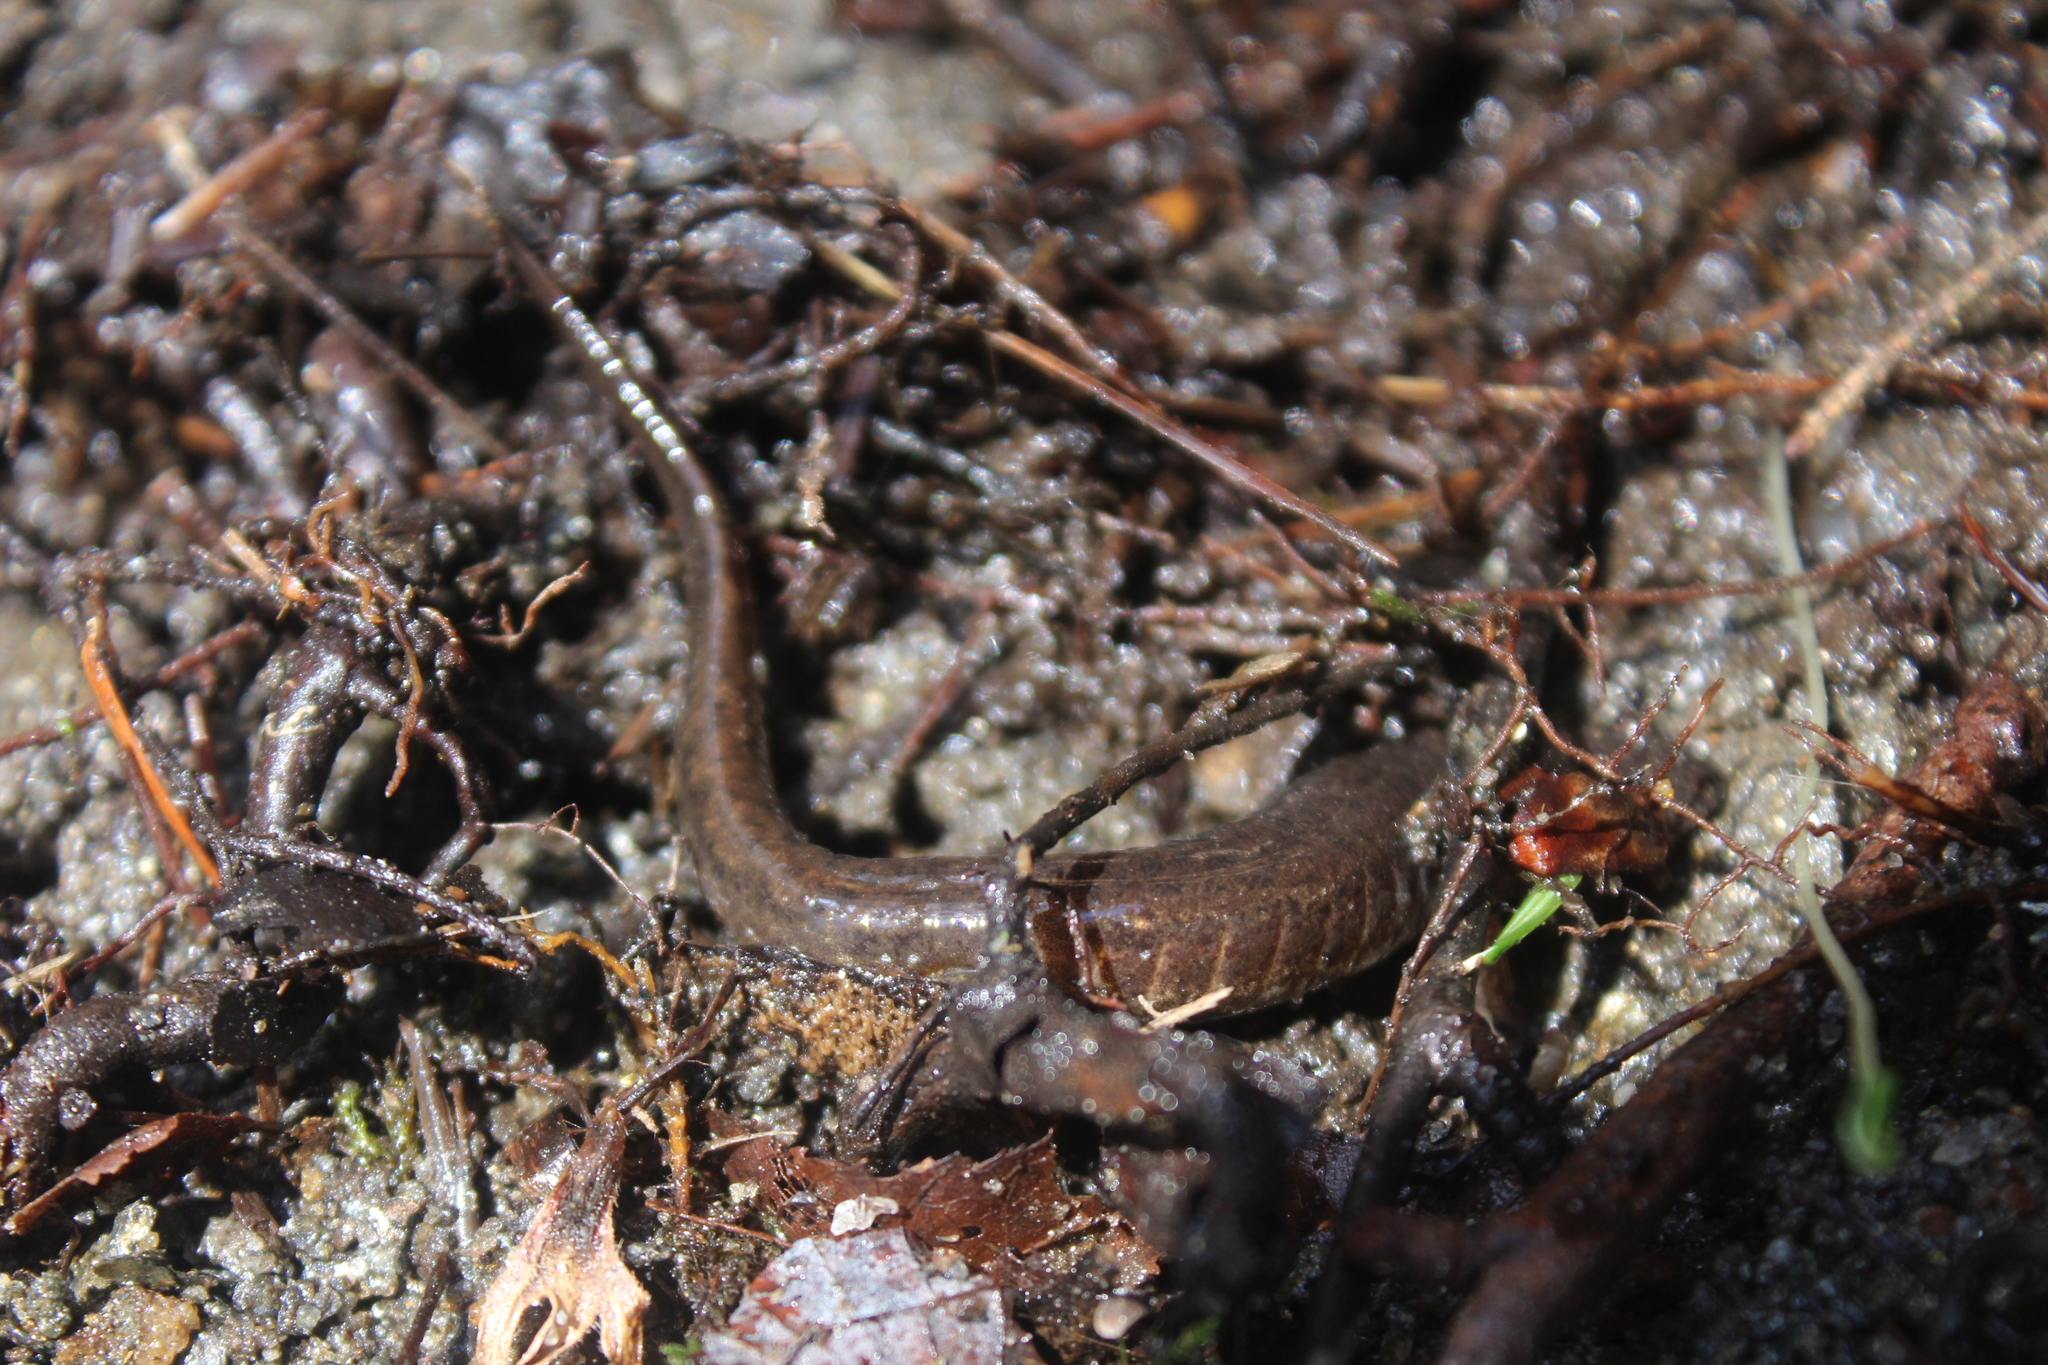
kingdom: Animalia
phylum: Chordata
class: Amphibia
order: Caudata
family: Plethodontidae
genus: Desmognathus
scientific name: Desmognathus fuscus
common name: Northern dusky salamander
